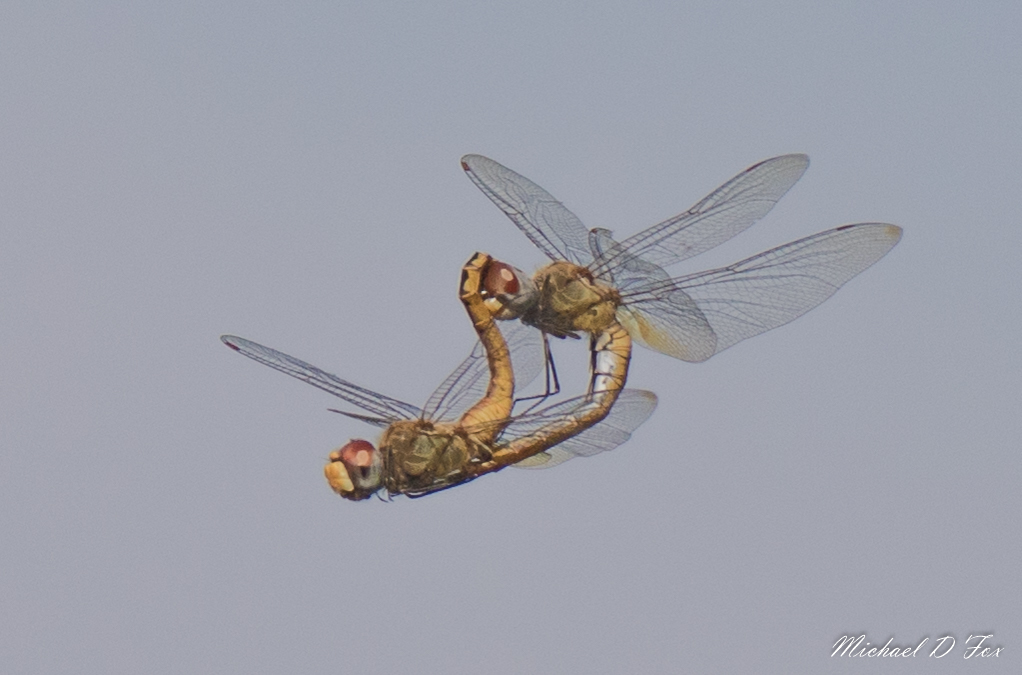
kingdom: Animalia
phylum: Arthropoda
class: Insecta
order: Odonata
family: Libellulidae
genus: Pantala
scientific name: Pantala flavescens
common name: Wandering glider
